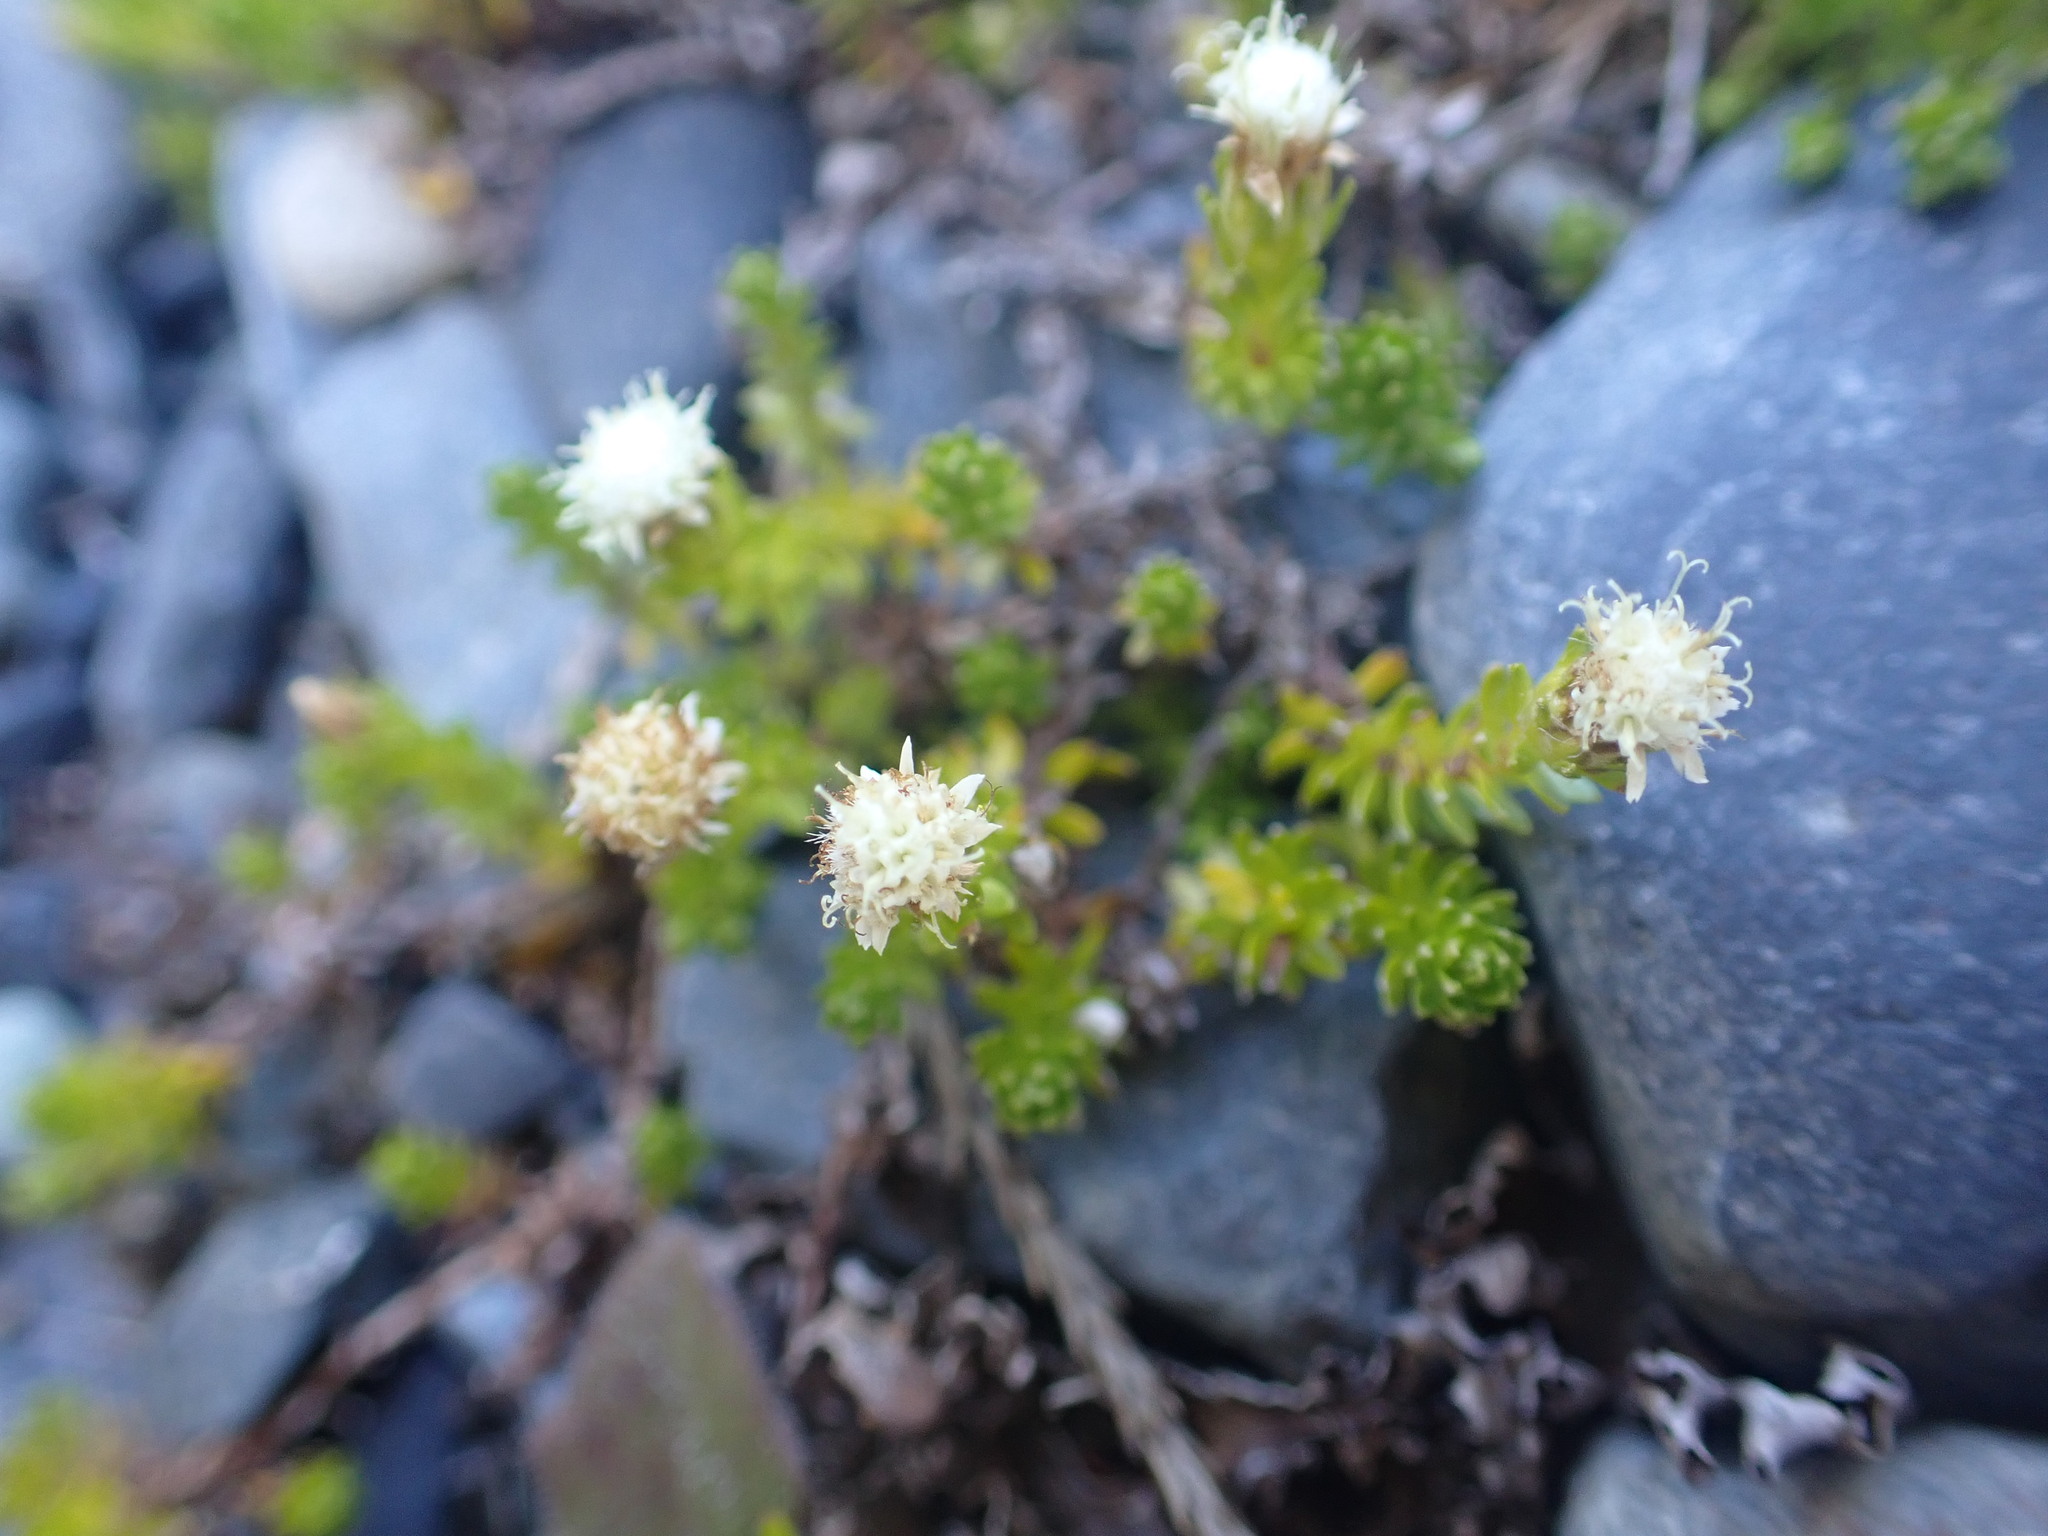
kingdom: Plantae
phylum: Tracheophyta
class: Magnoliopsida
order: Asterales
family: Asteraceae
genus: Raoulia
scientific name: Raoulia glabra
